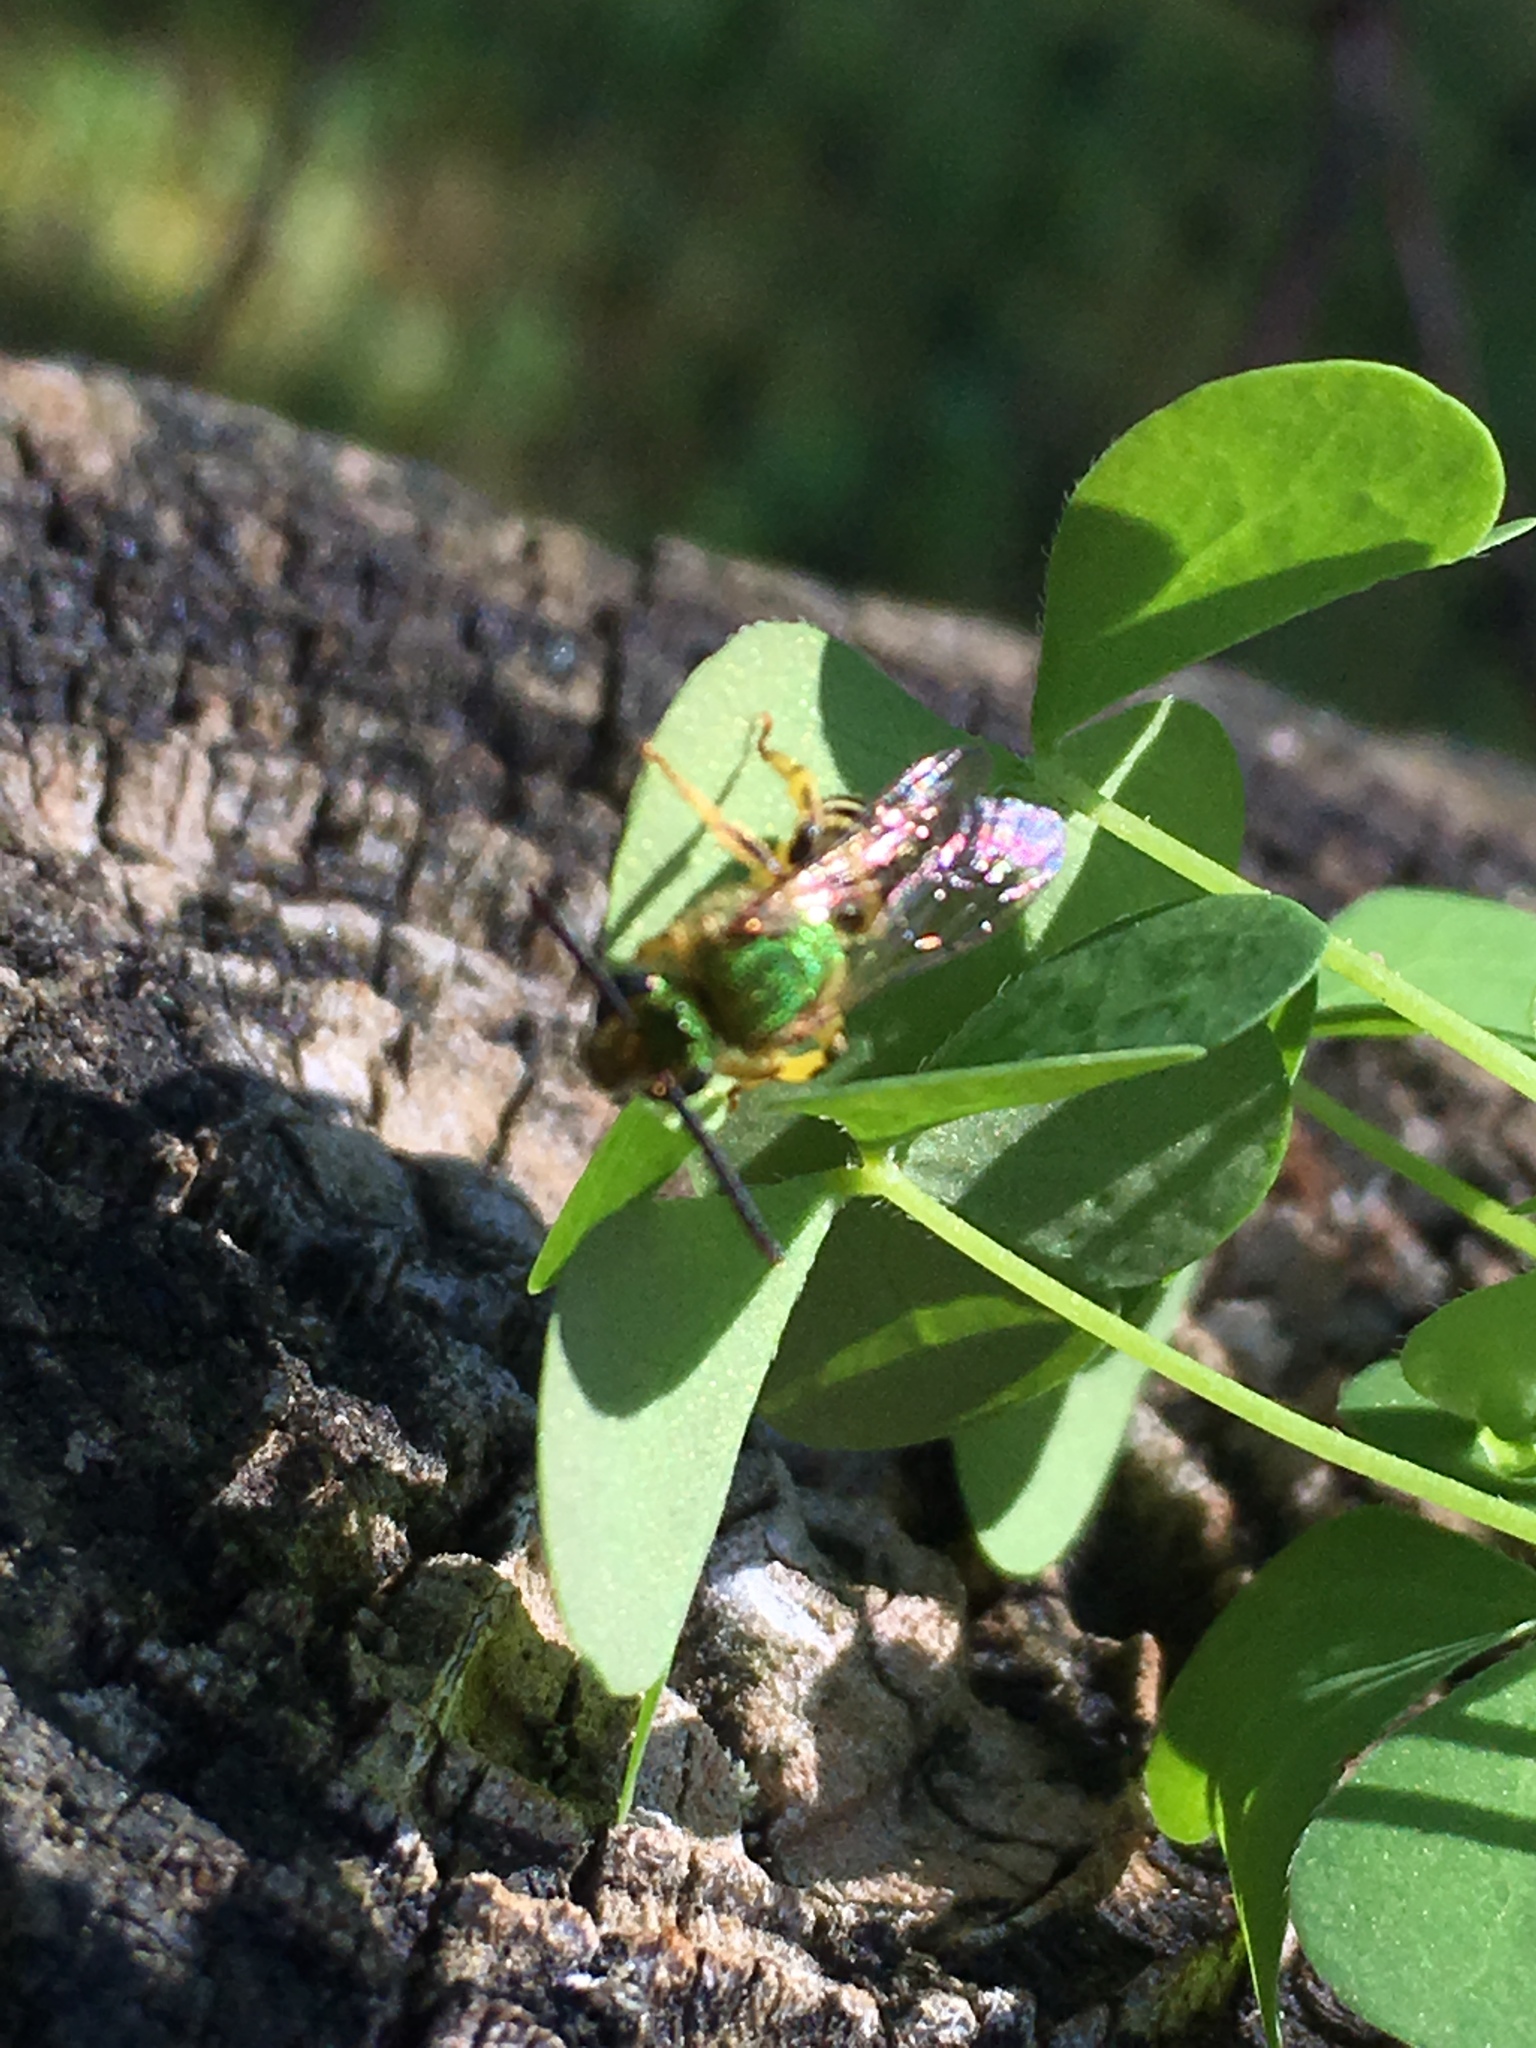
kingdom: Animalia
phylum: Arthropoda
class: Insecta
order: Hymenoptera
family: Halictidae
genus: Agapostemon
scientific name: Agapostemon virescens
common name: Bicolored striped sweat bee
